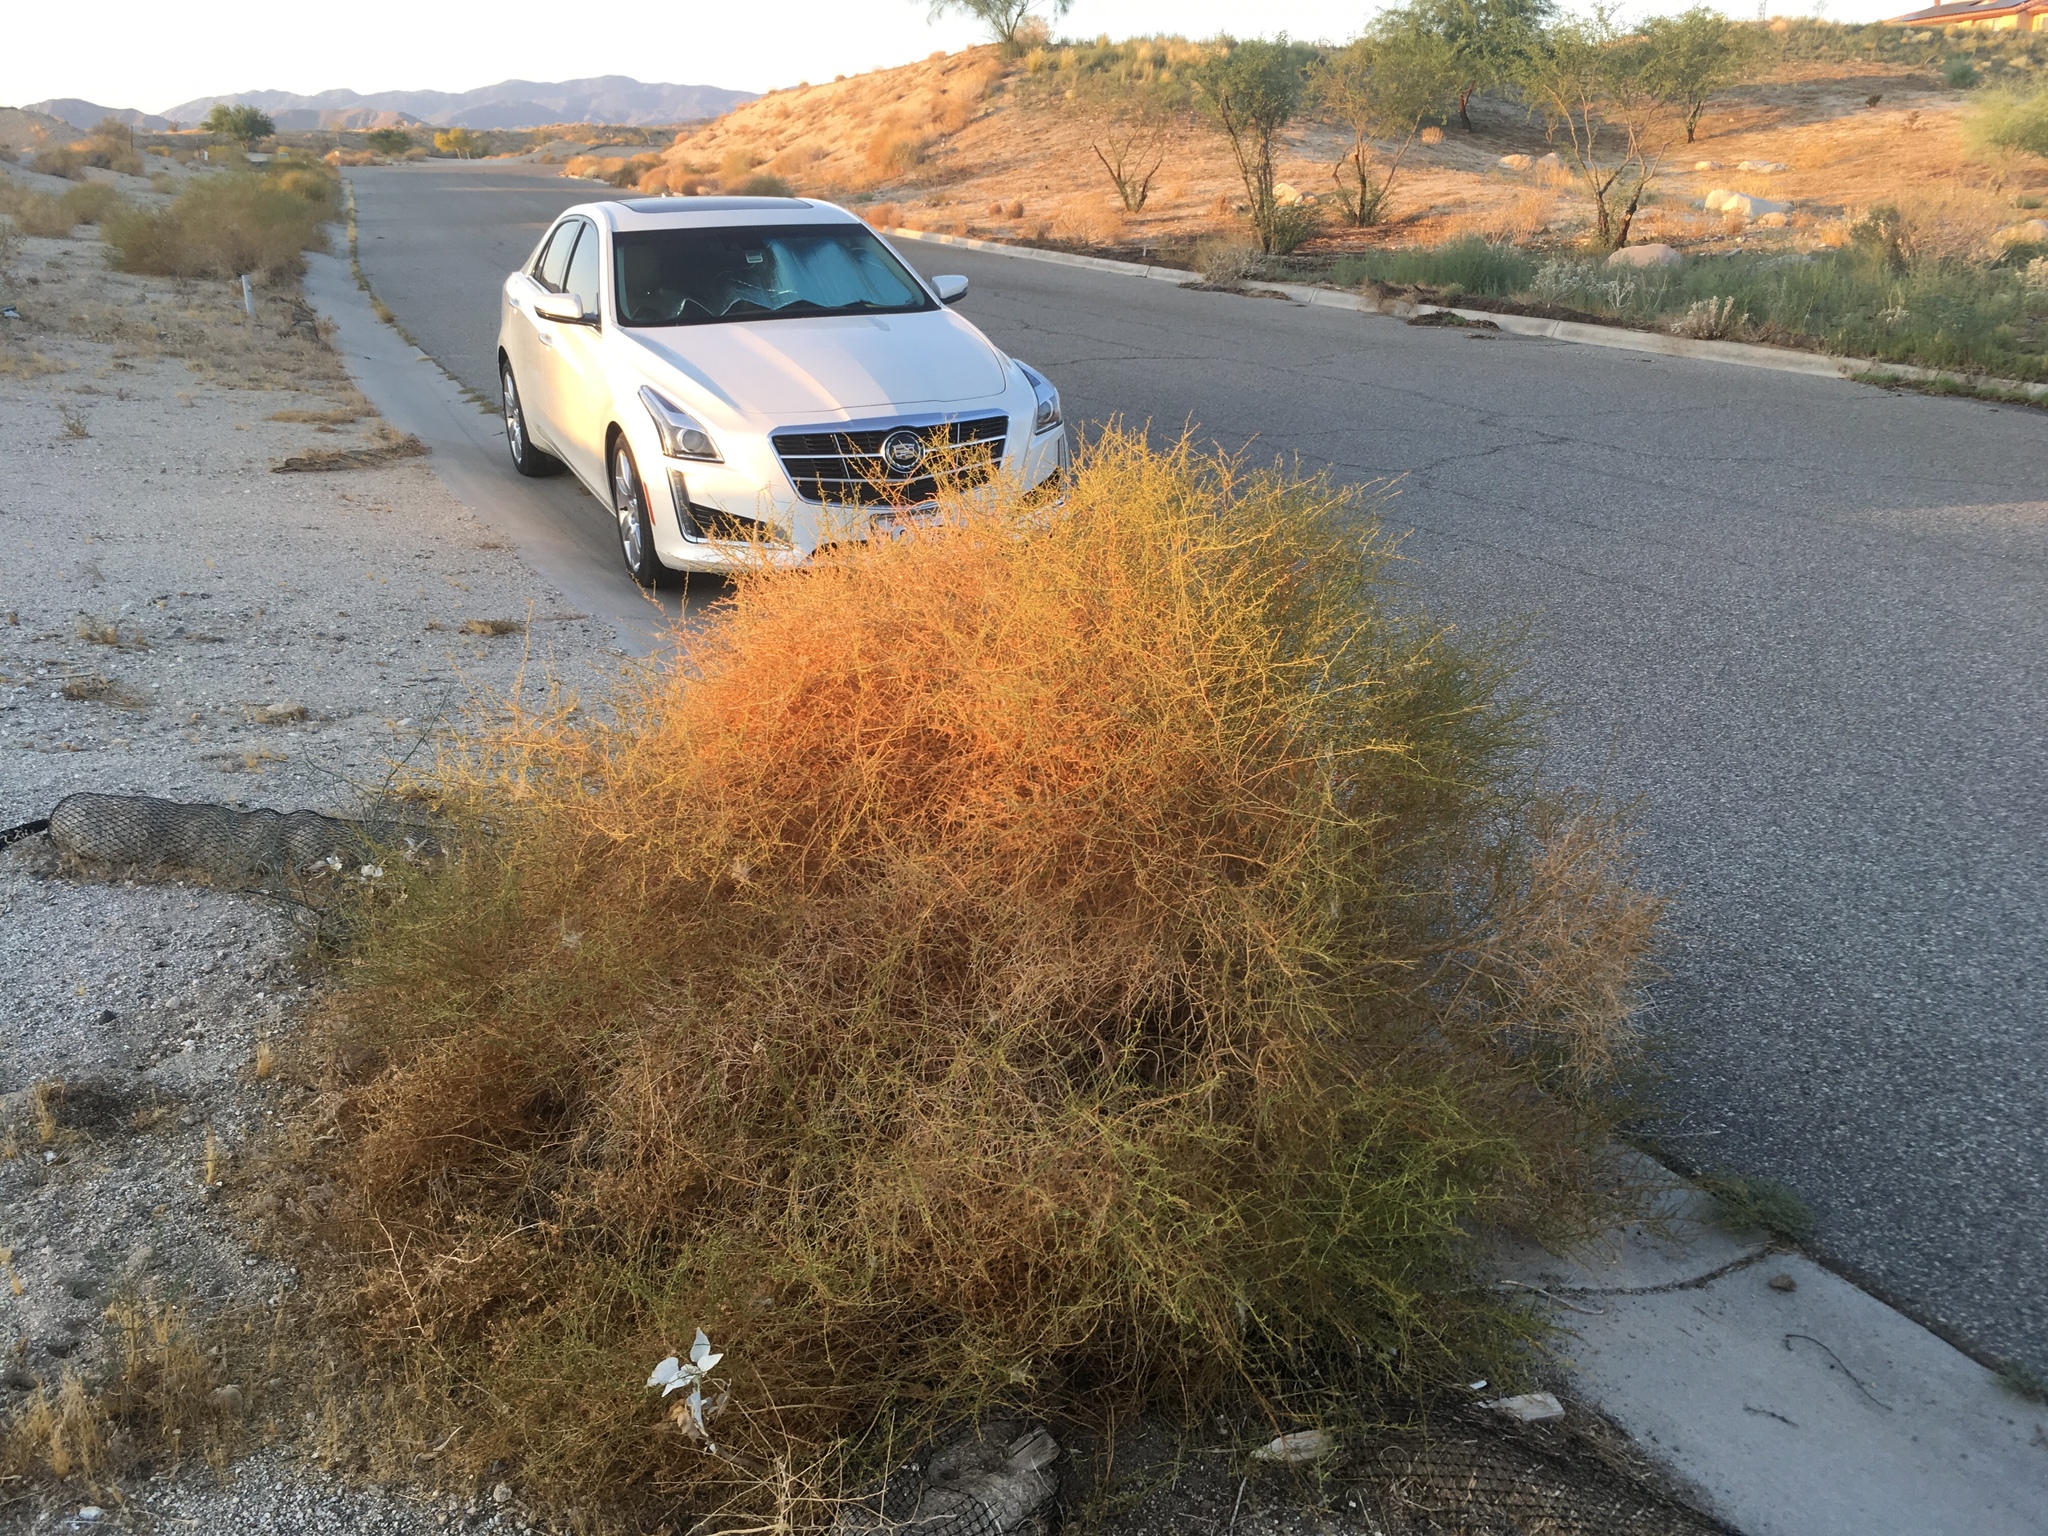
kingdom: Plantae
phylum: Tracheophyta
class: Magnoliopsida
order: Asterales
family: Asteraceae
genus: Ambrosia
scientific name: Ambrosia salsola
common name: Burrobrush
